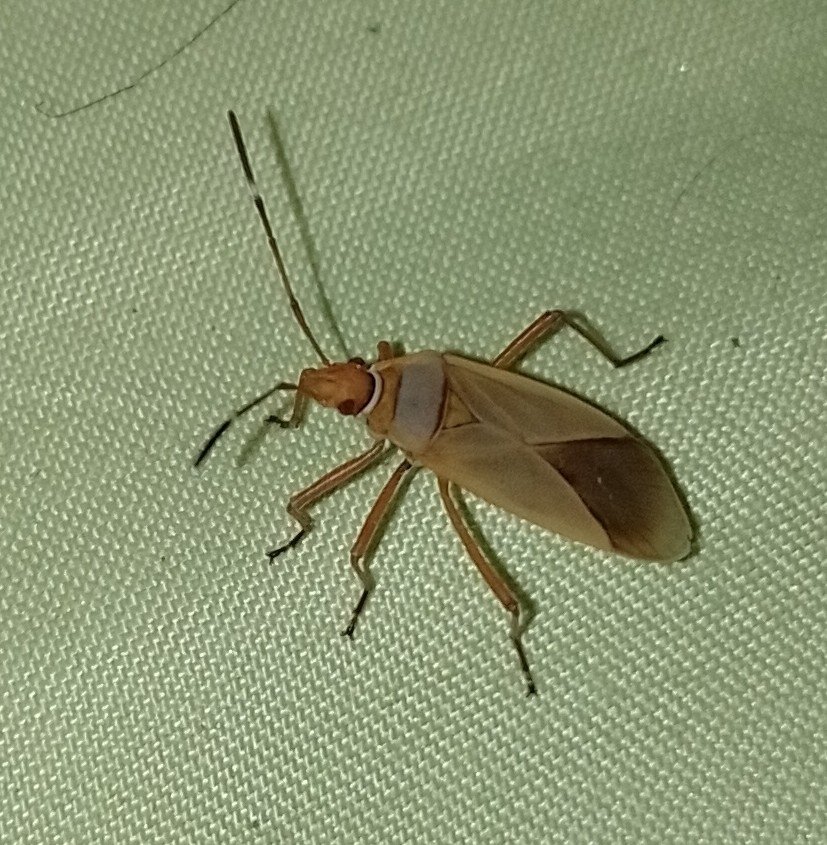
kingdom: Animalia
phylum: Arthropoda
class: Insecta
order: Hemiptera
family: Pyrrhocoridae
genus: Dysdercus
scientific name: Dysdercus
